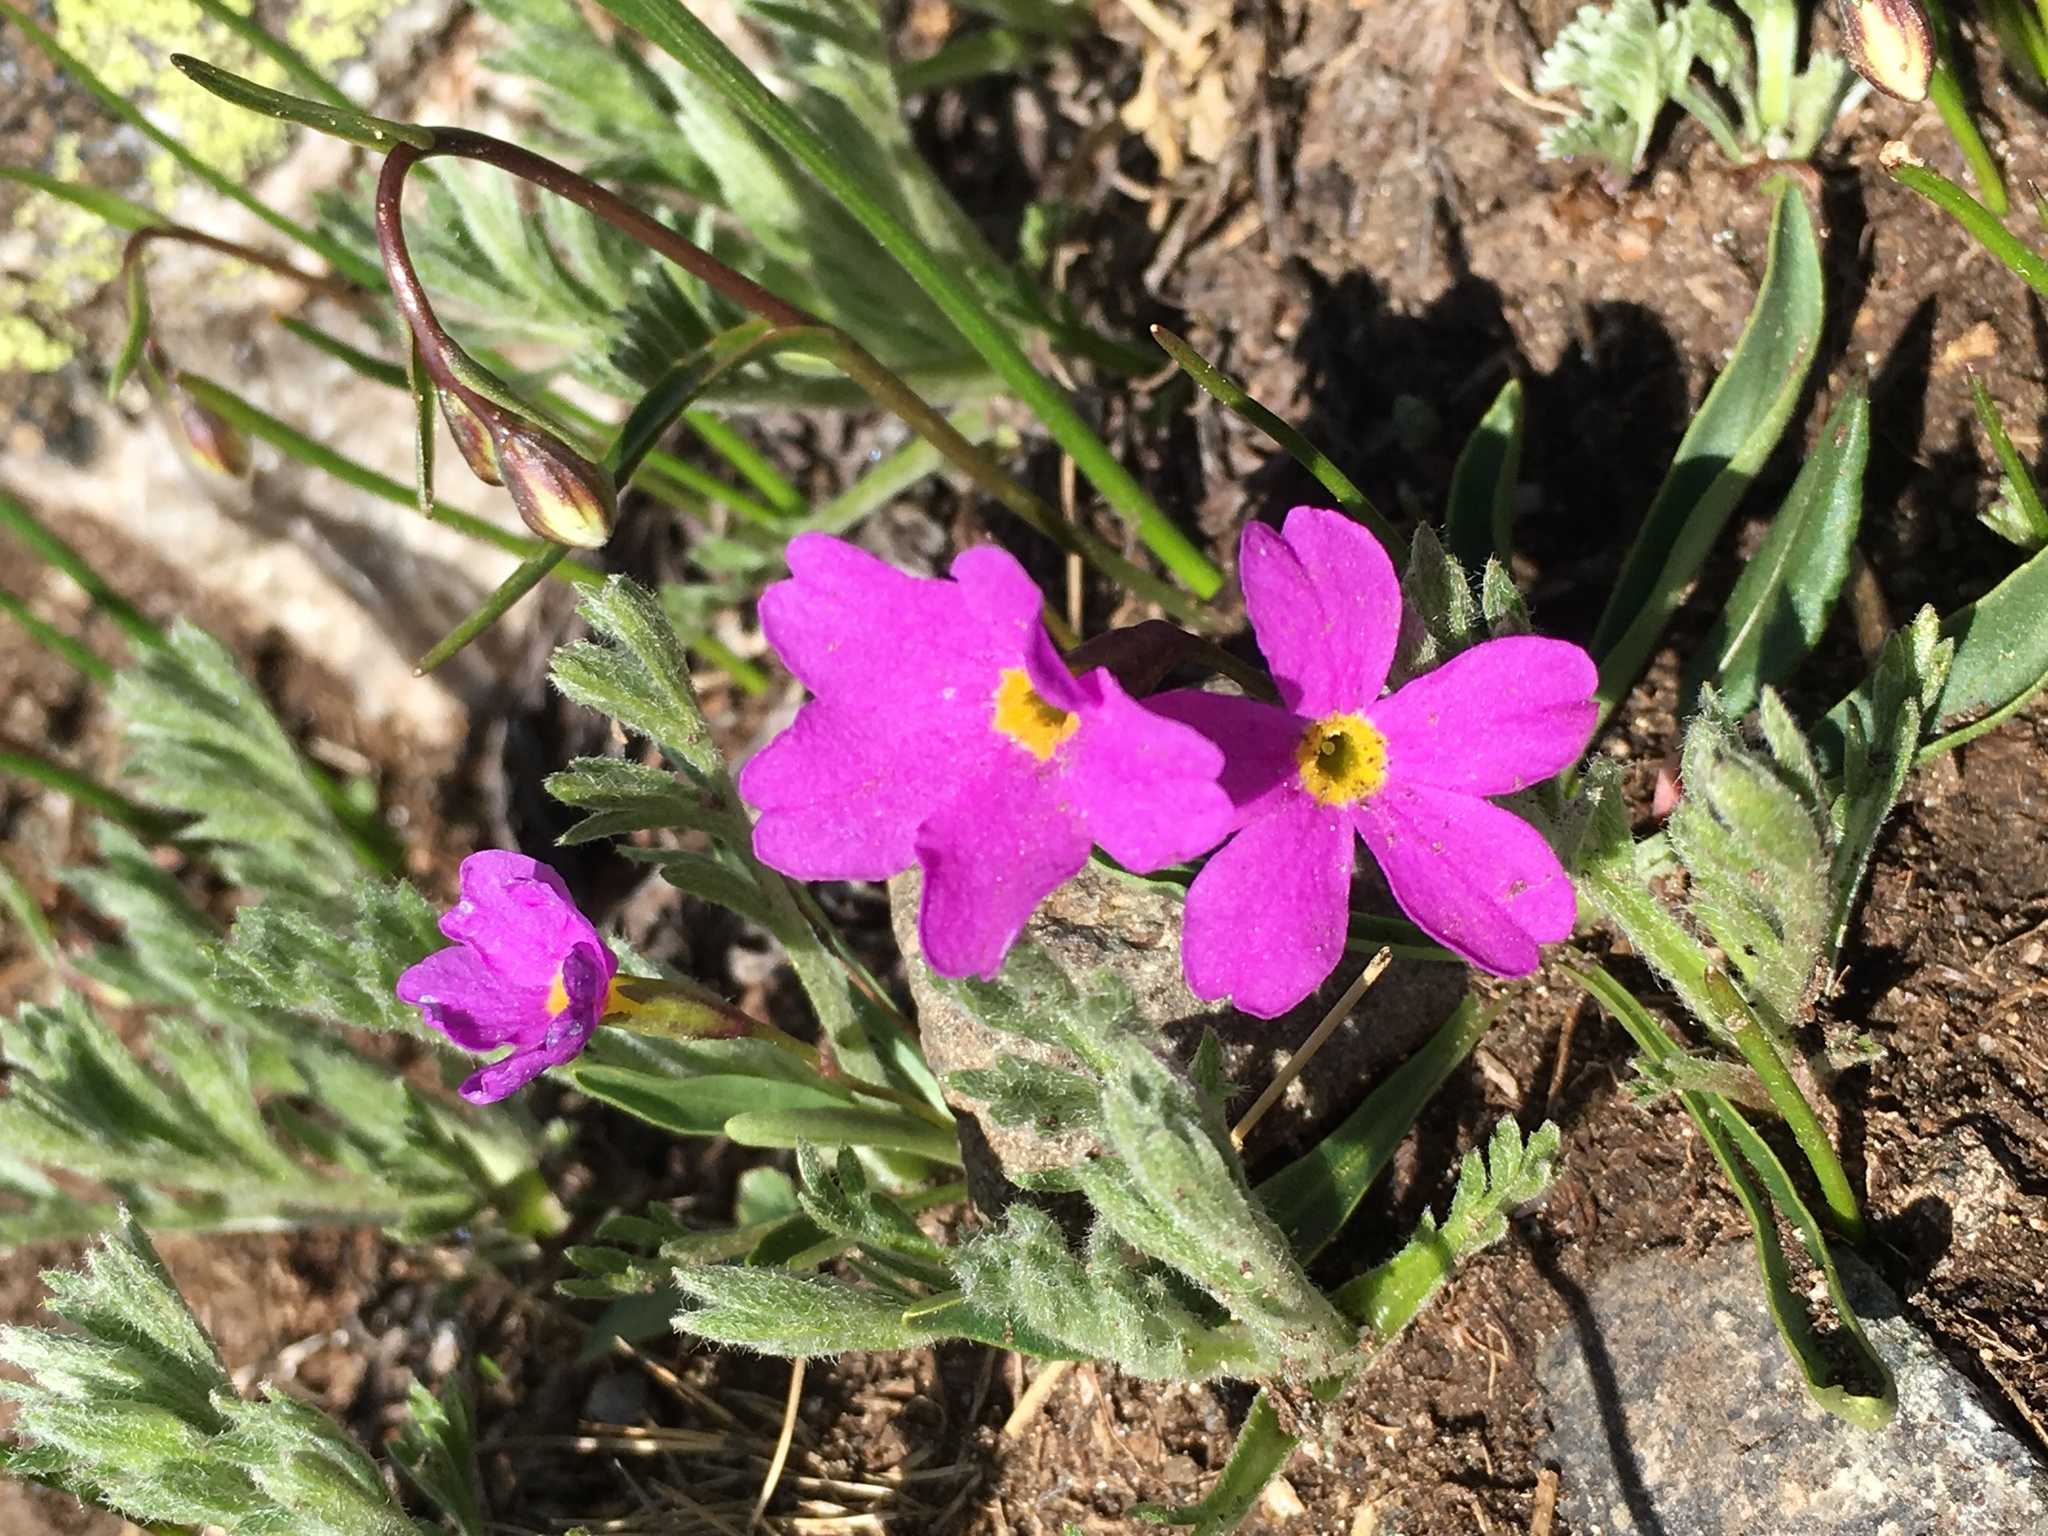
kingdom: Plantae
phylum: Tracheophyta
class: Magnoliopsida
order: Ericales
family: Primulaceae
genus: Primula
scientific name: Primula angustifolia
